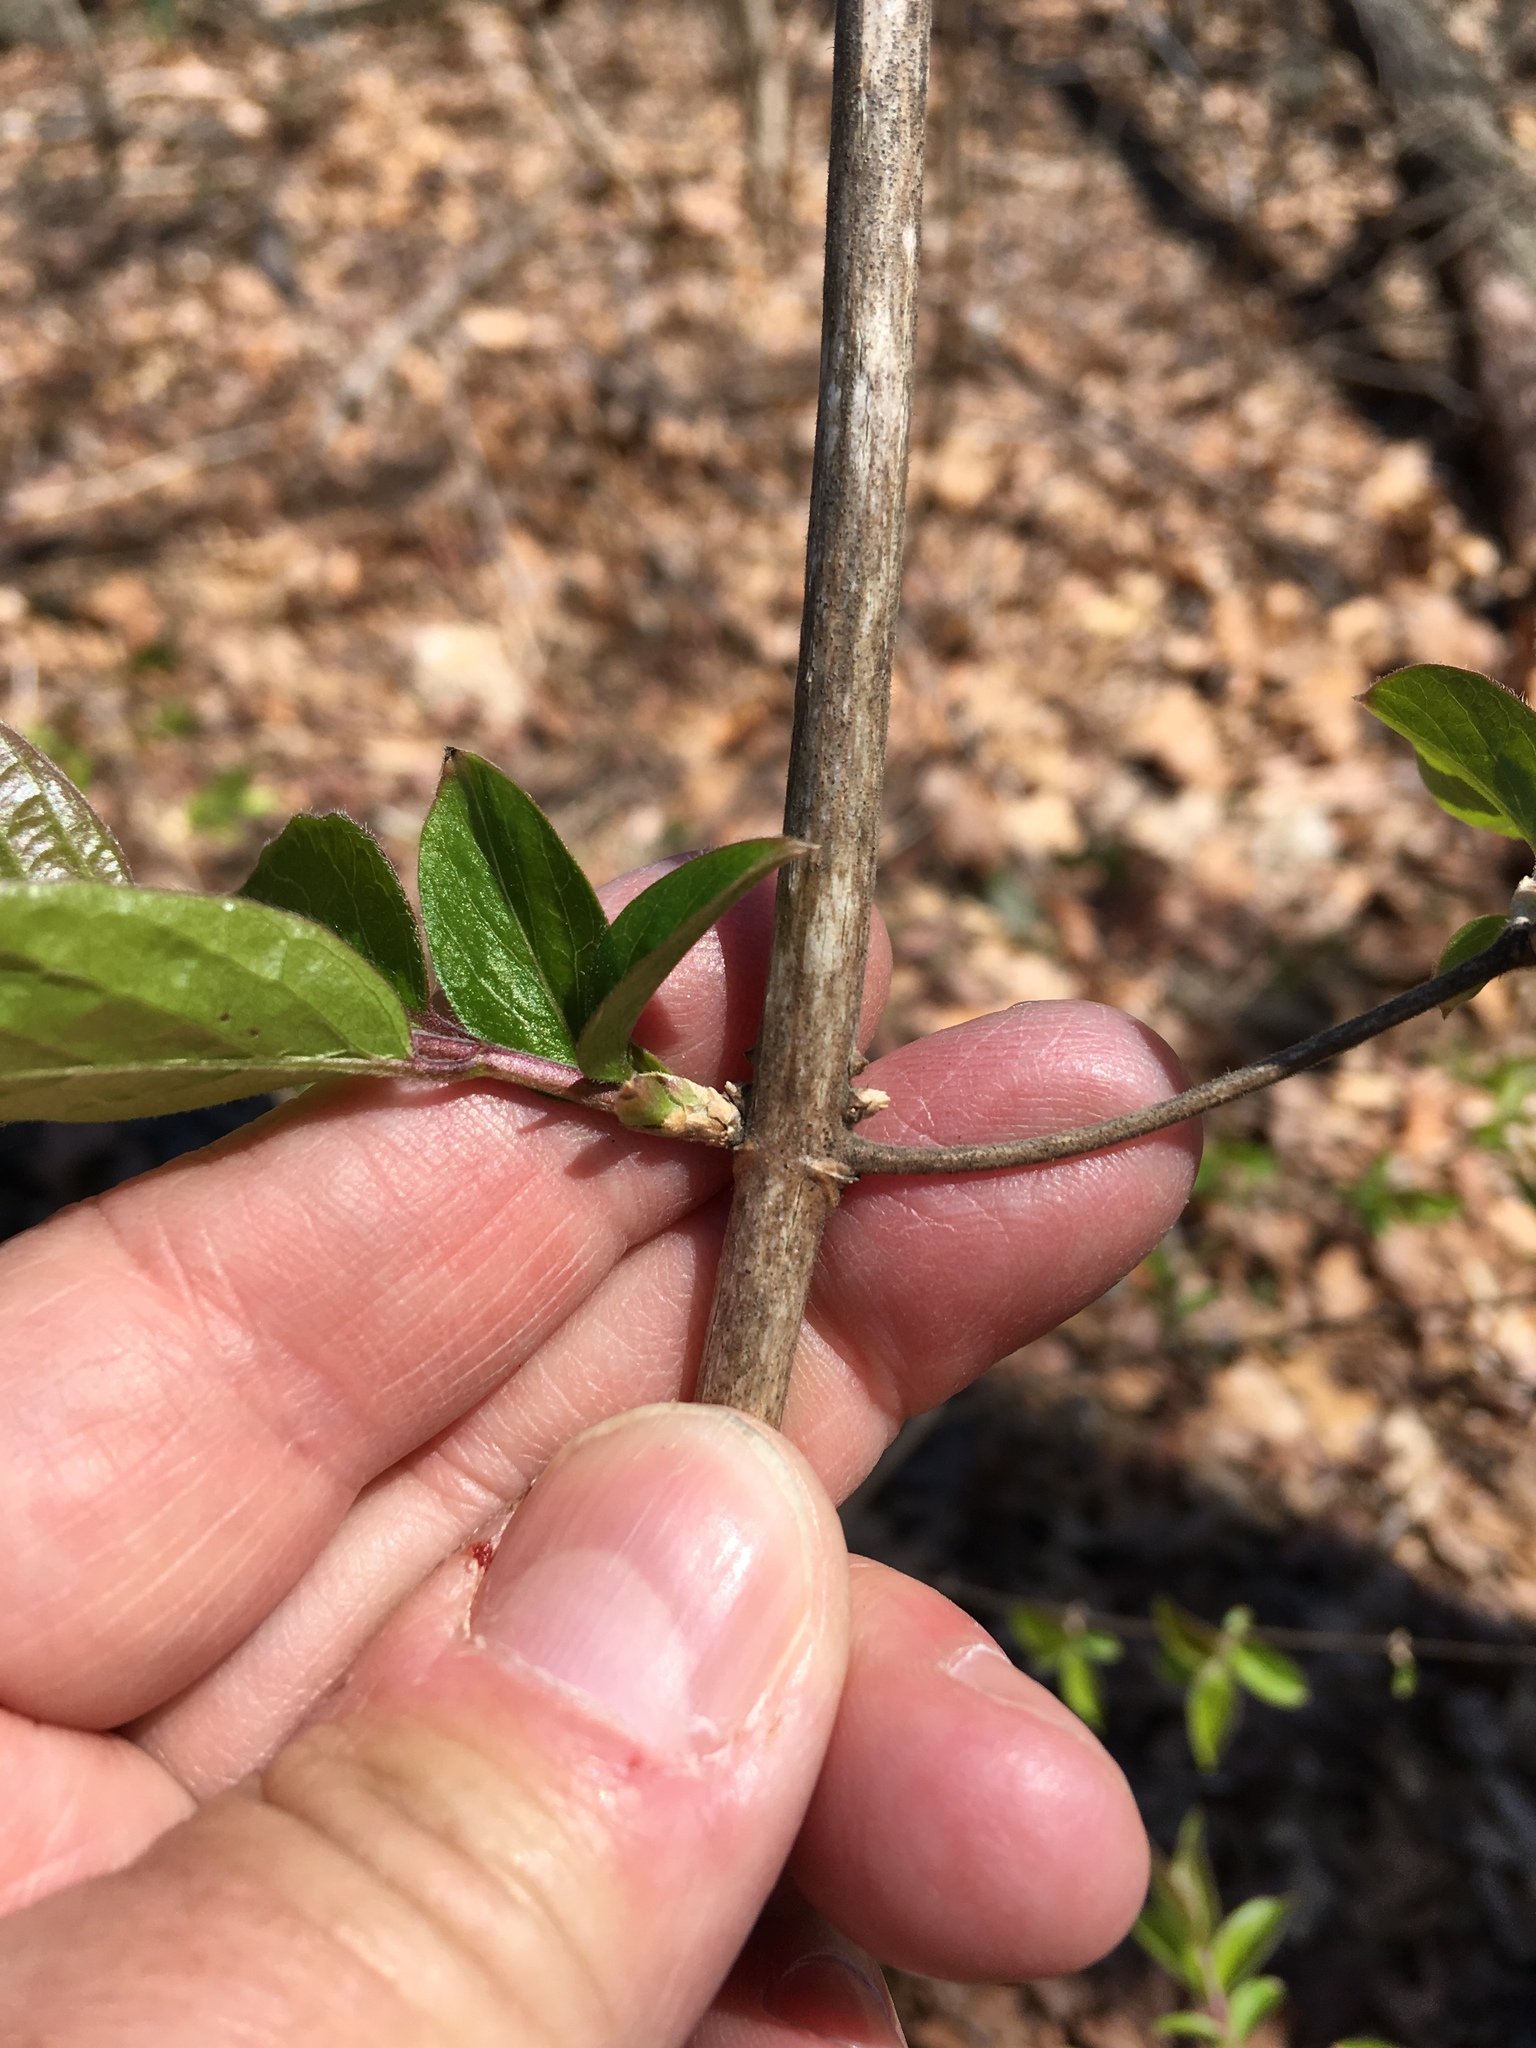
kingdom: Plantae
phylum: Tracheophyta
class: Magnoliopsida
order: Dipsacales
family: Caprifoliaceae
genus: Lonicera
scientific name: Lonicera maackii
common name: Amur honeysuckle
